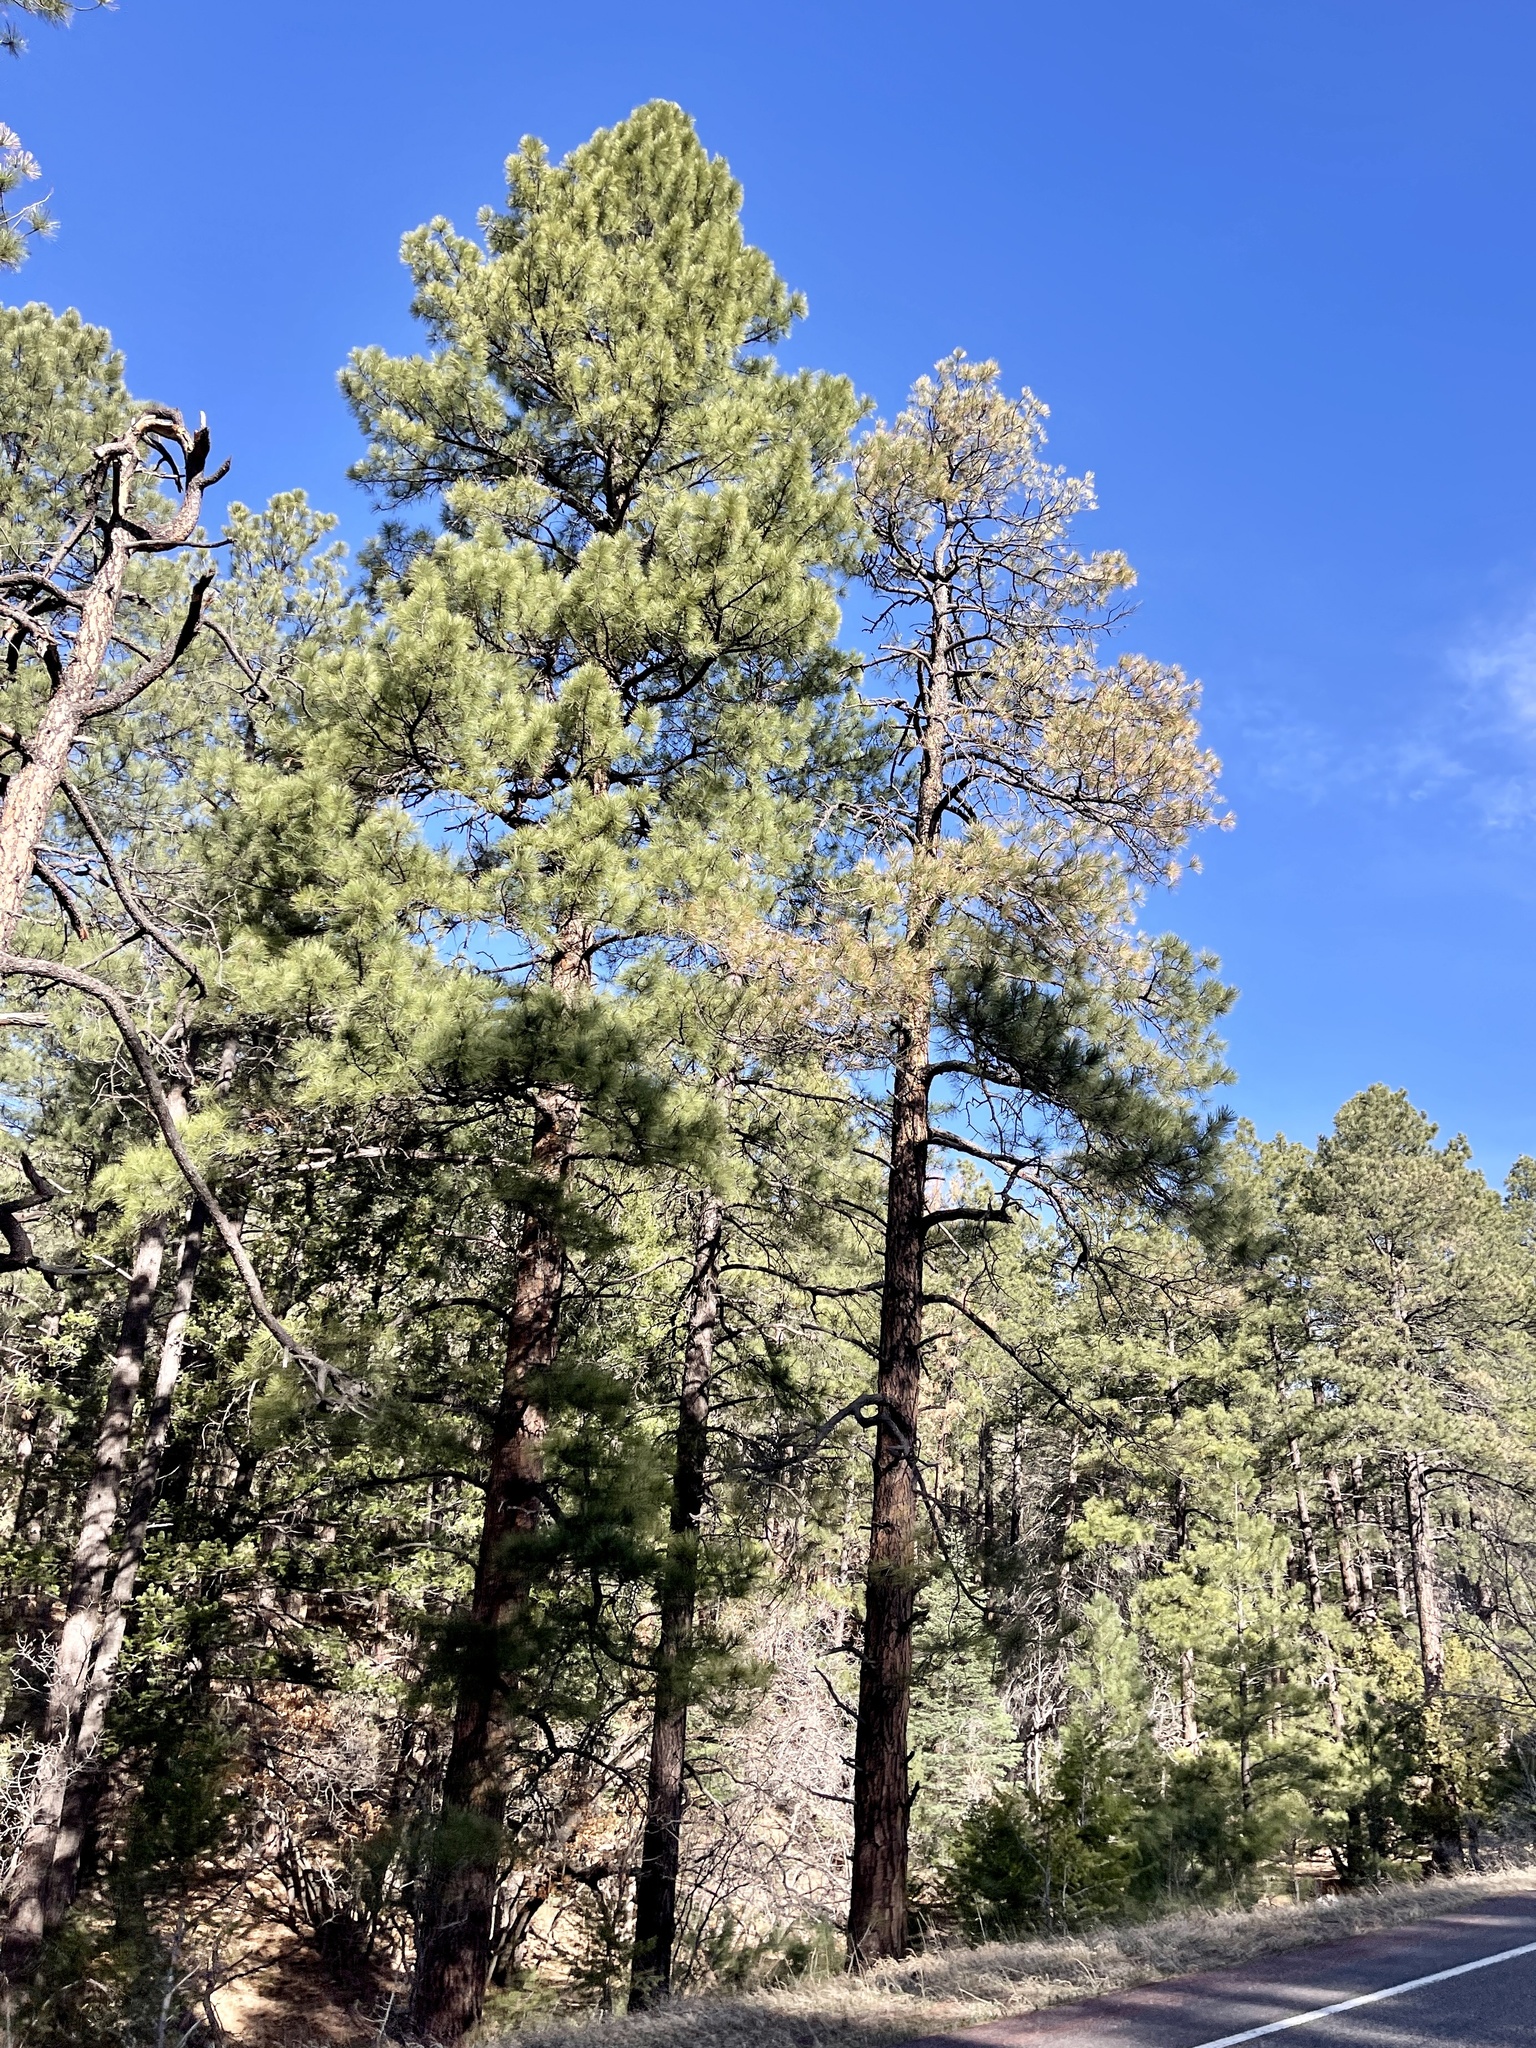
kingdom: Plantae
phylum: Tracheophyta
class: Pinopsida
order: Pinales
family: Pinaceae
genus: Pinus
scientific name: Pinus ponderosa
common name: Western yellow-pine
